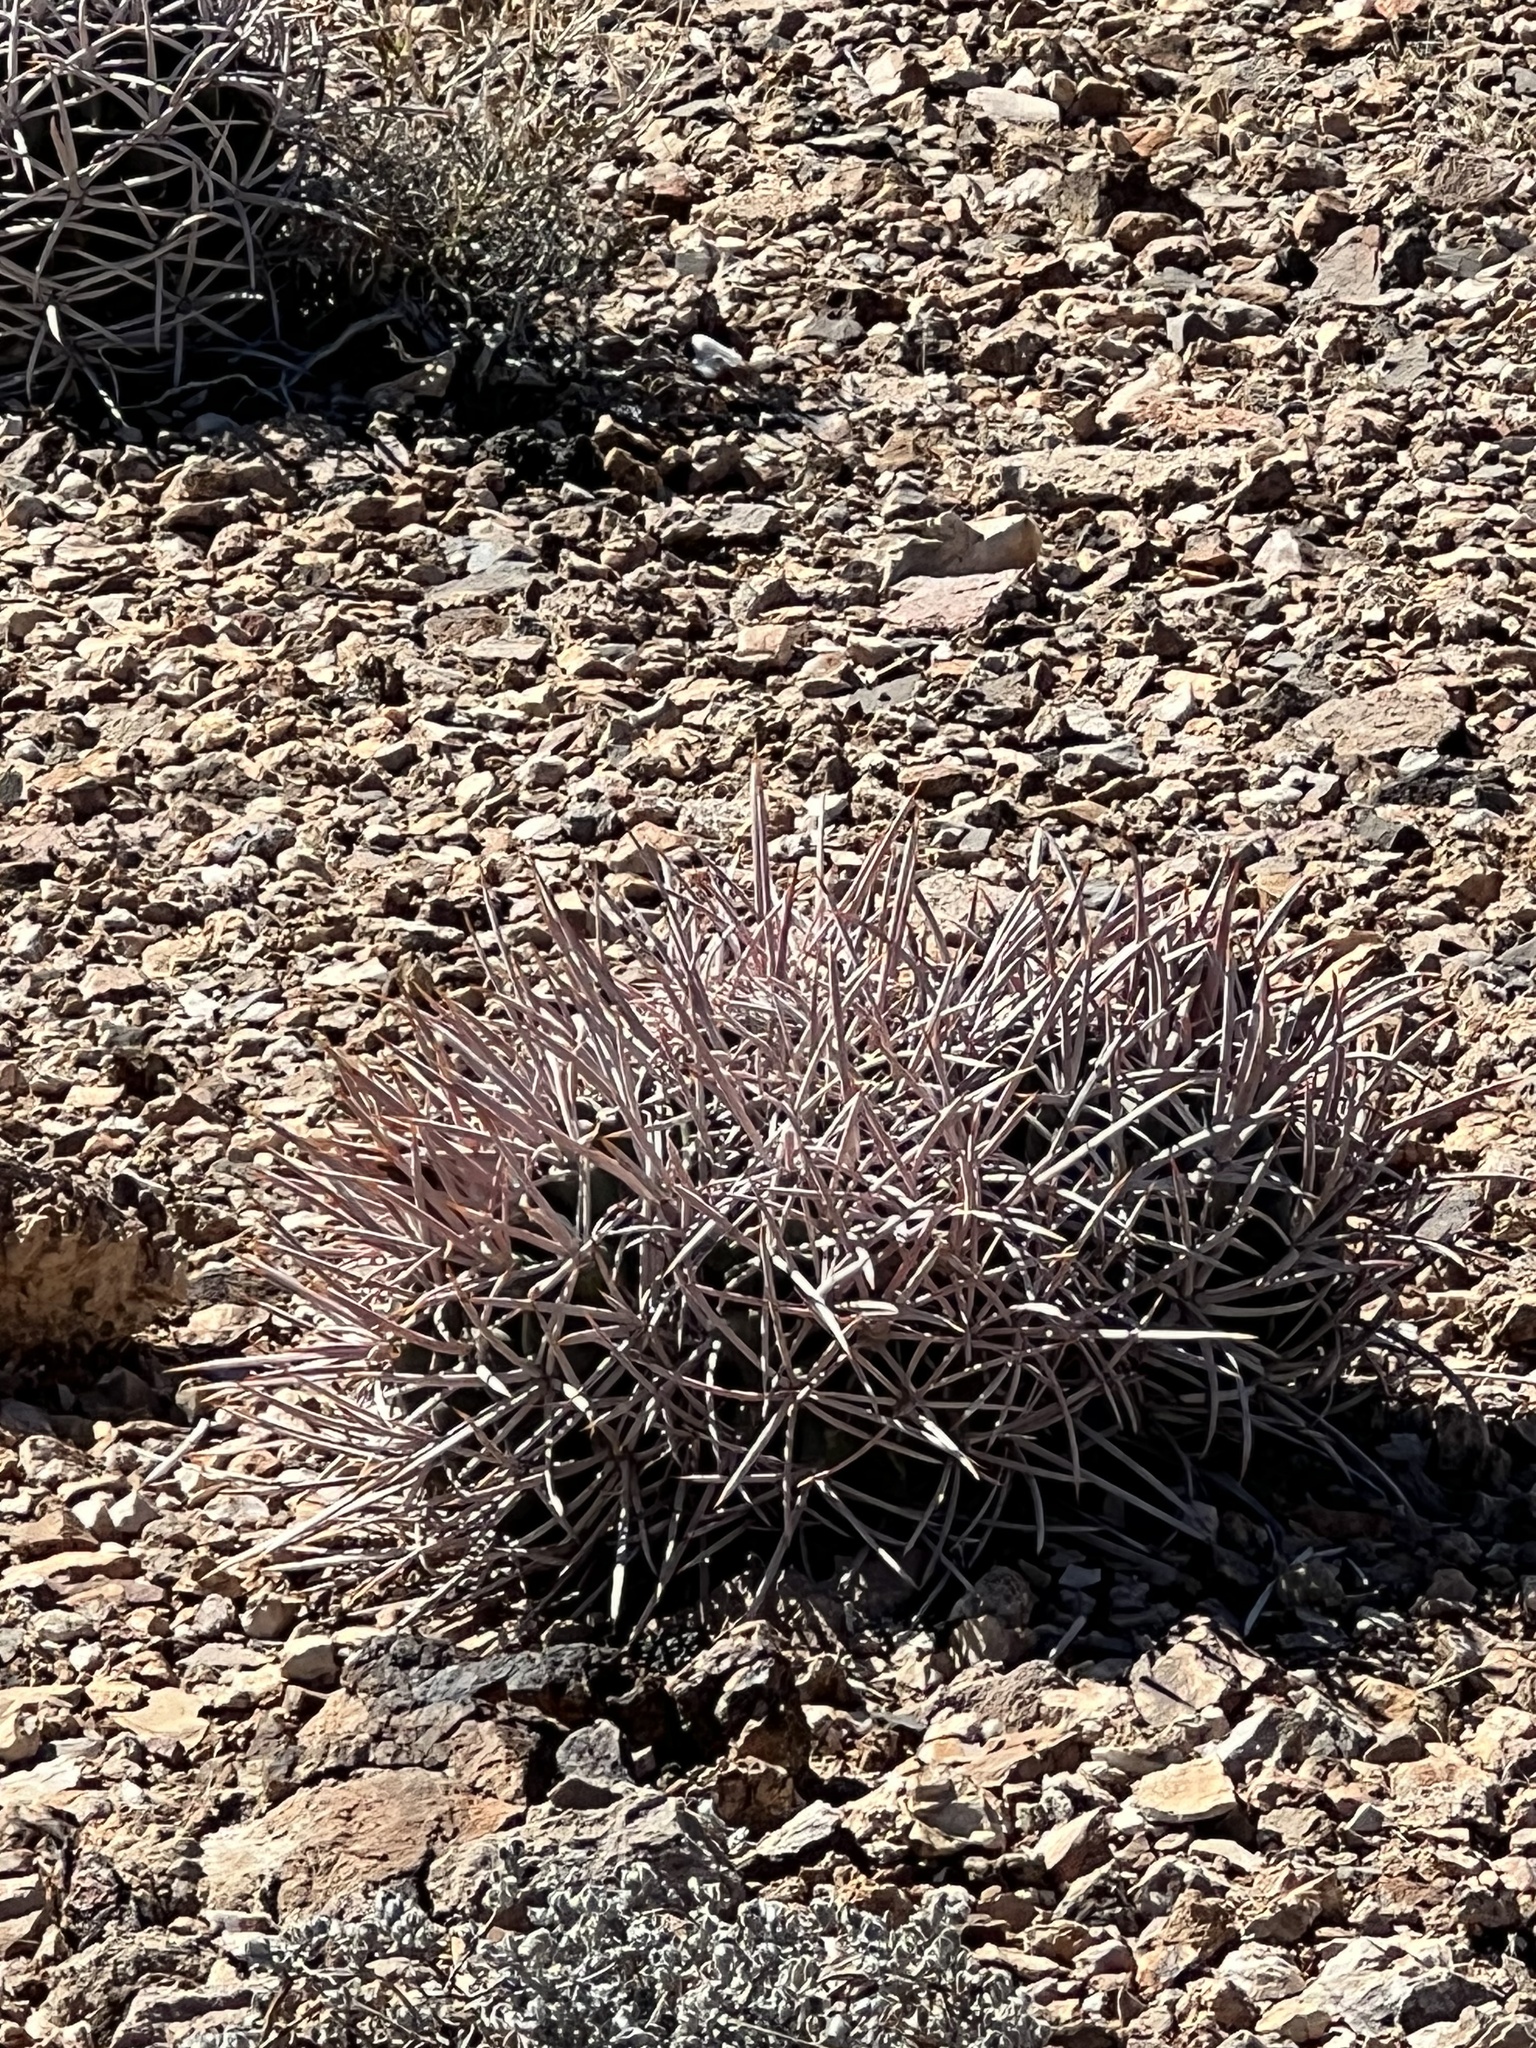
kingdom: Plantae
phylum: Tracheophyta
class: Magnoliopsida
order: Caryophyllales
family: Cactaceae
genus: Echinocactus
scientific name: Echinocactus polycephalus
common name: Cottontop cactus
